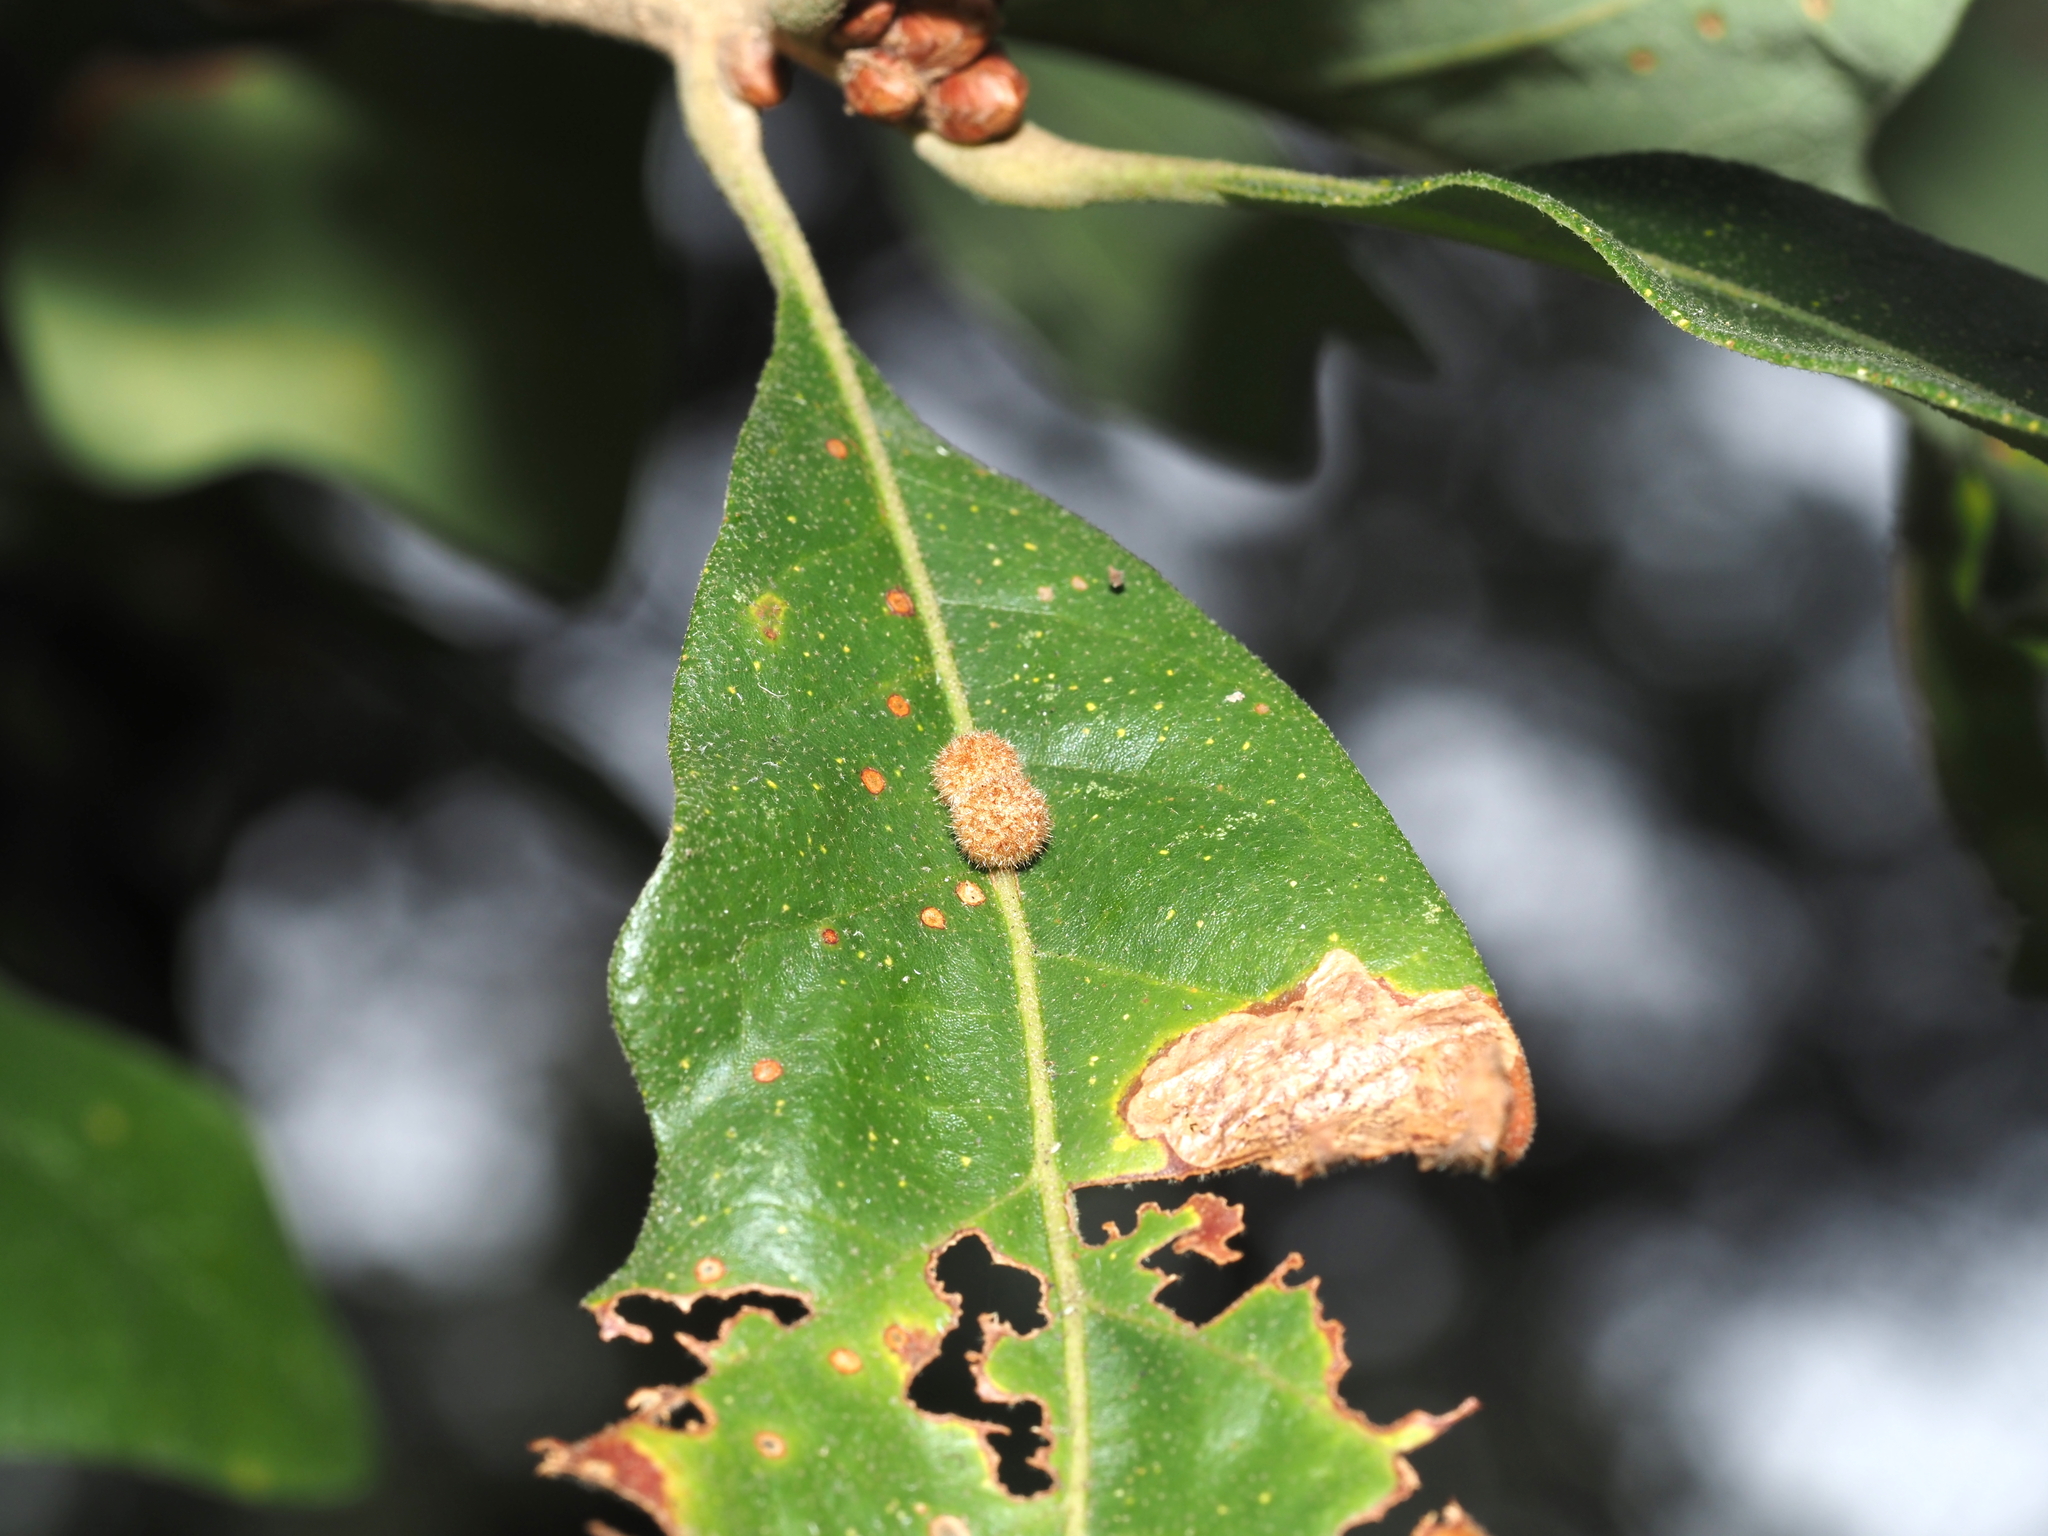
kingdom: Animalia
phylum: Arthropoda
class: Insecta
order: Hymenoptera
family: Cynipidae
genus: Biorhiza
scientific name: Biorhiza Sphaeroteras carolina
